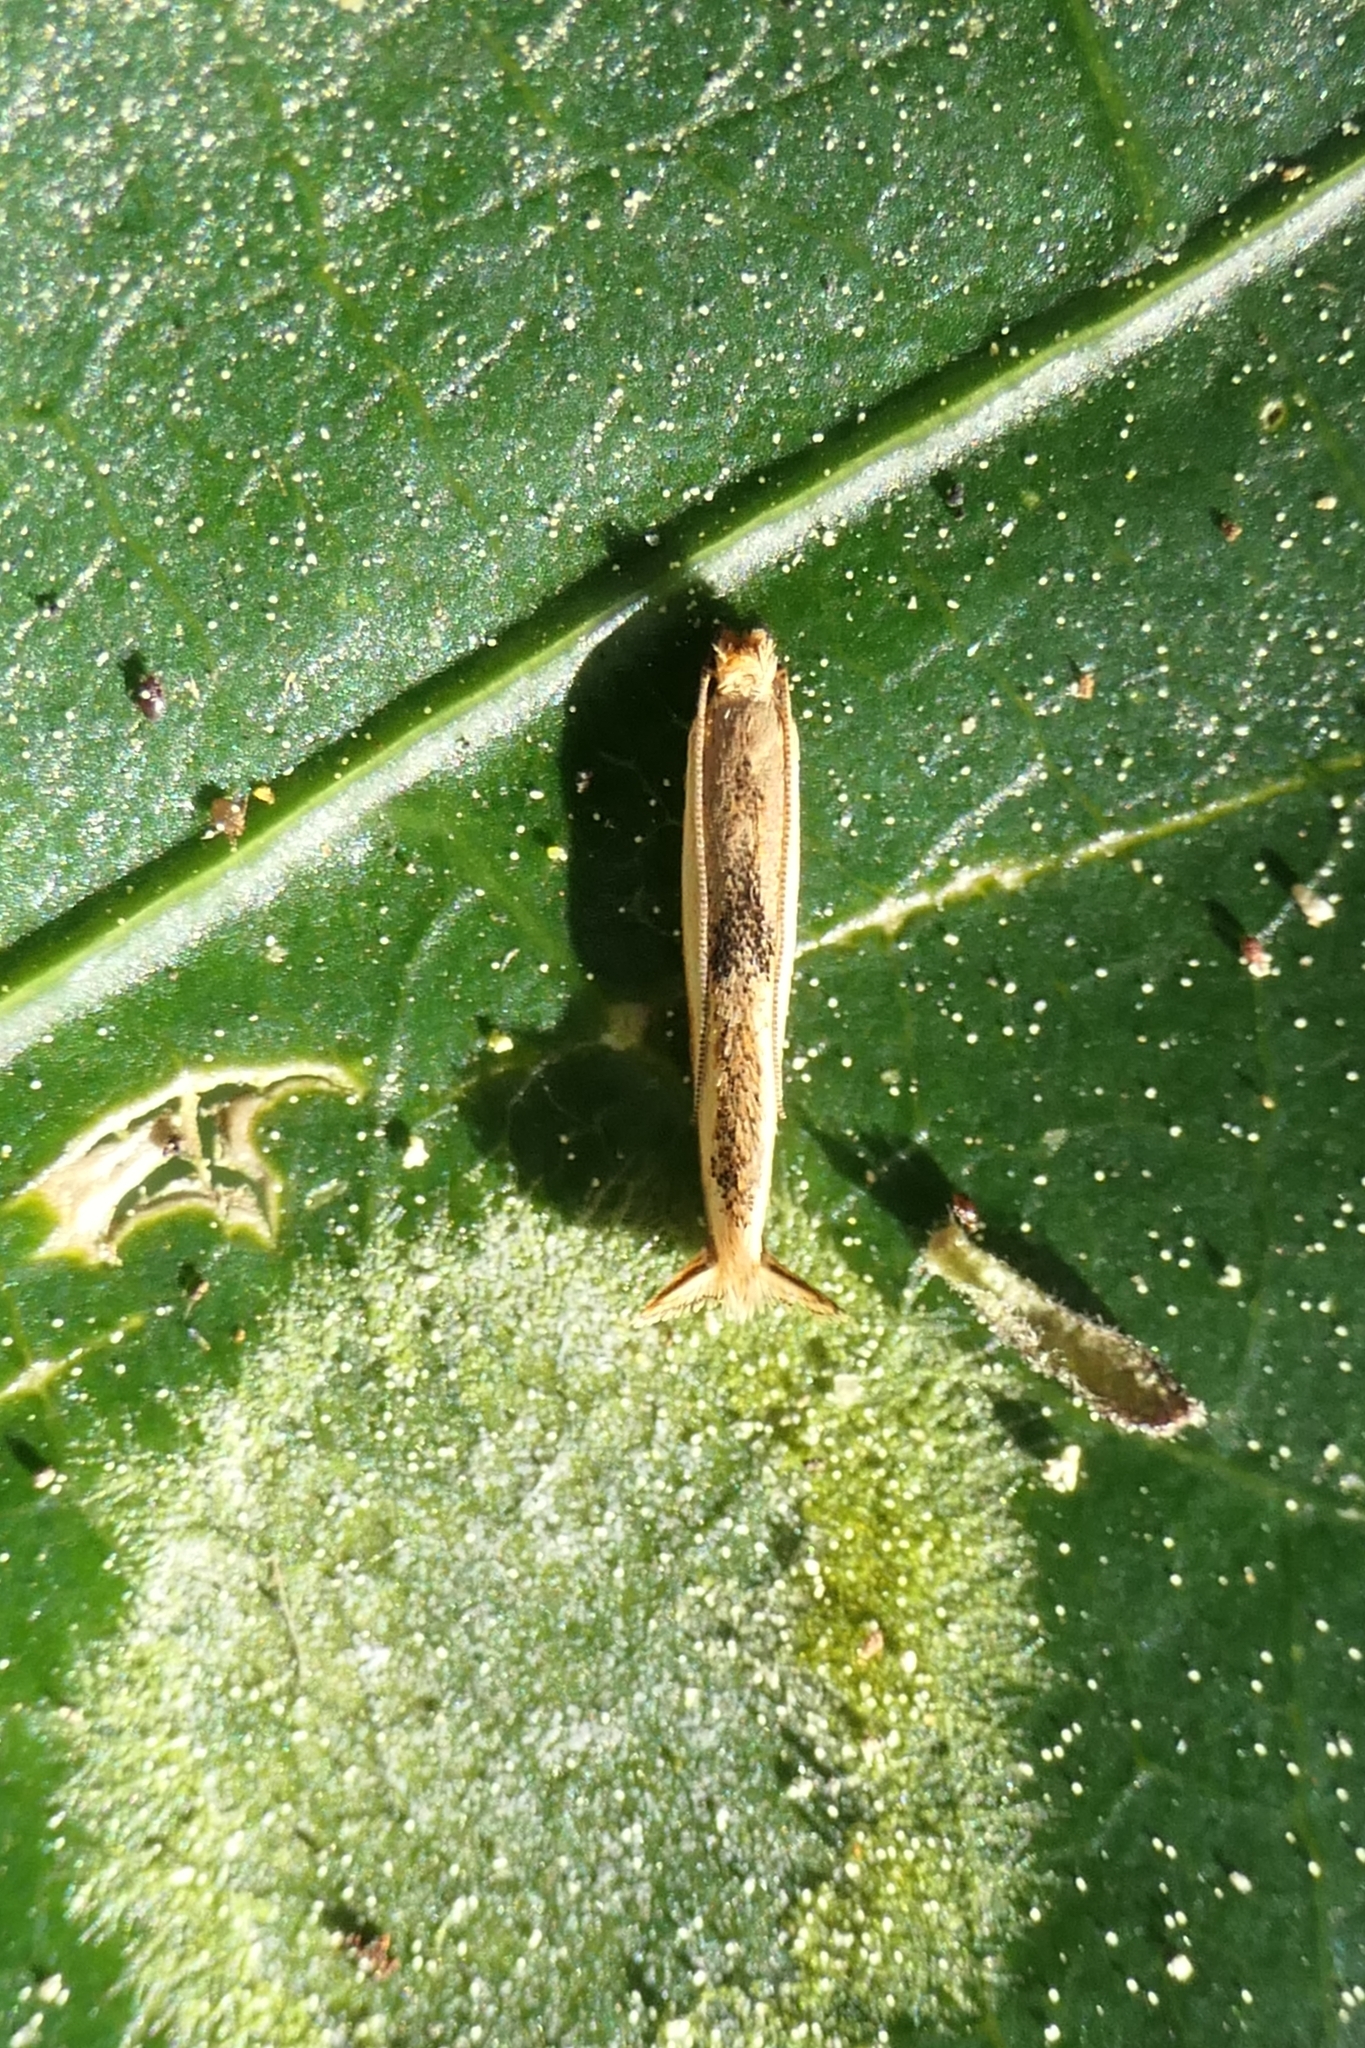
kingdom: Animalia
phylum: Arthropoda
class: Insecta
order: Lepidoptera
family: Tineidae
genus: Erechthias
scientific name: Erechthias charadrota
